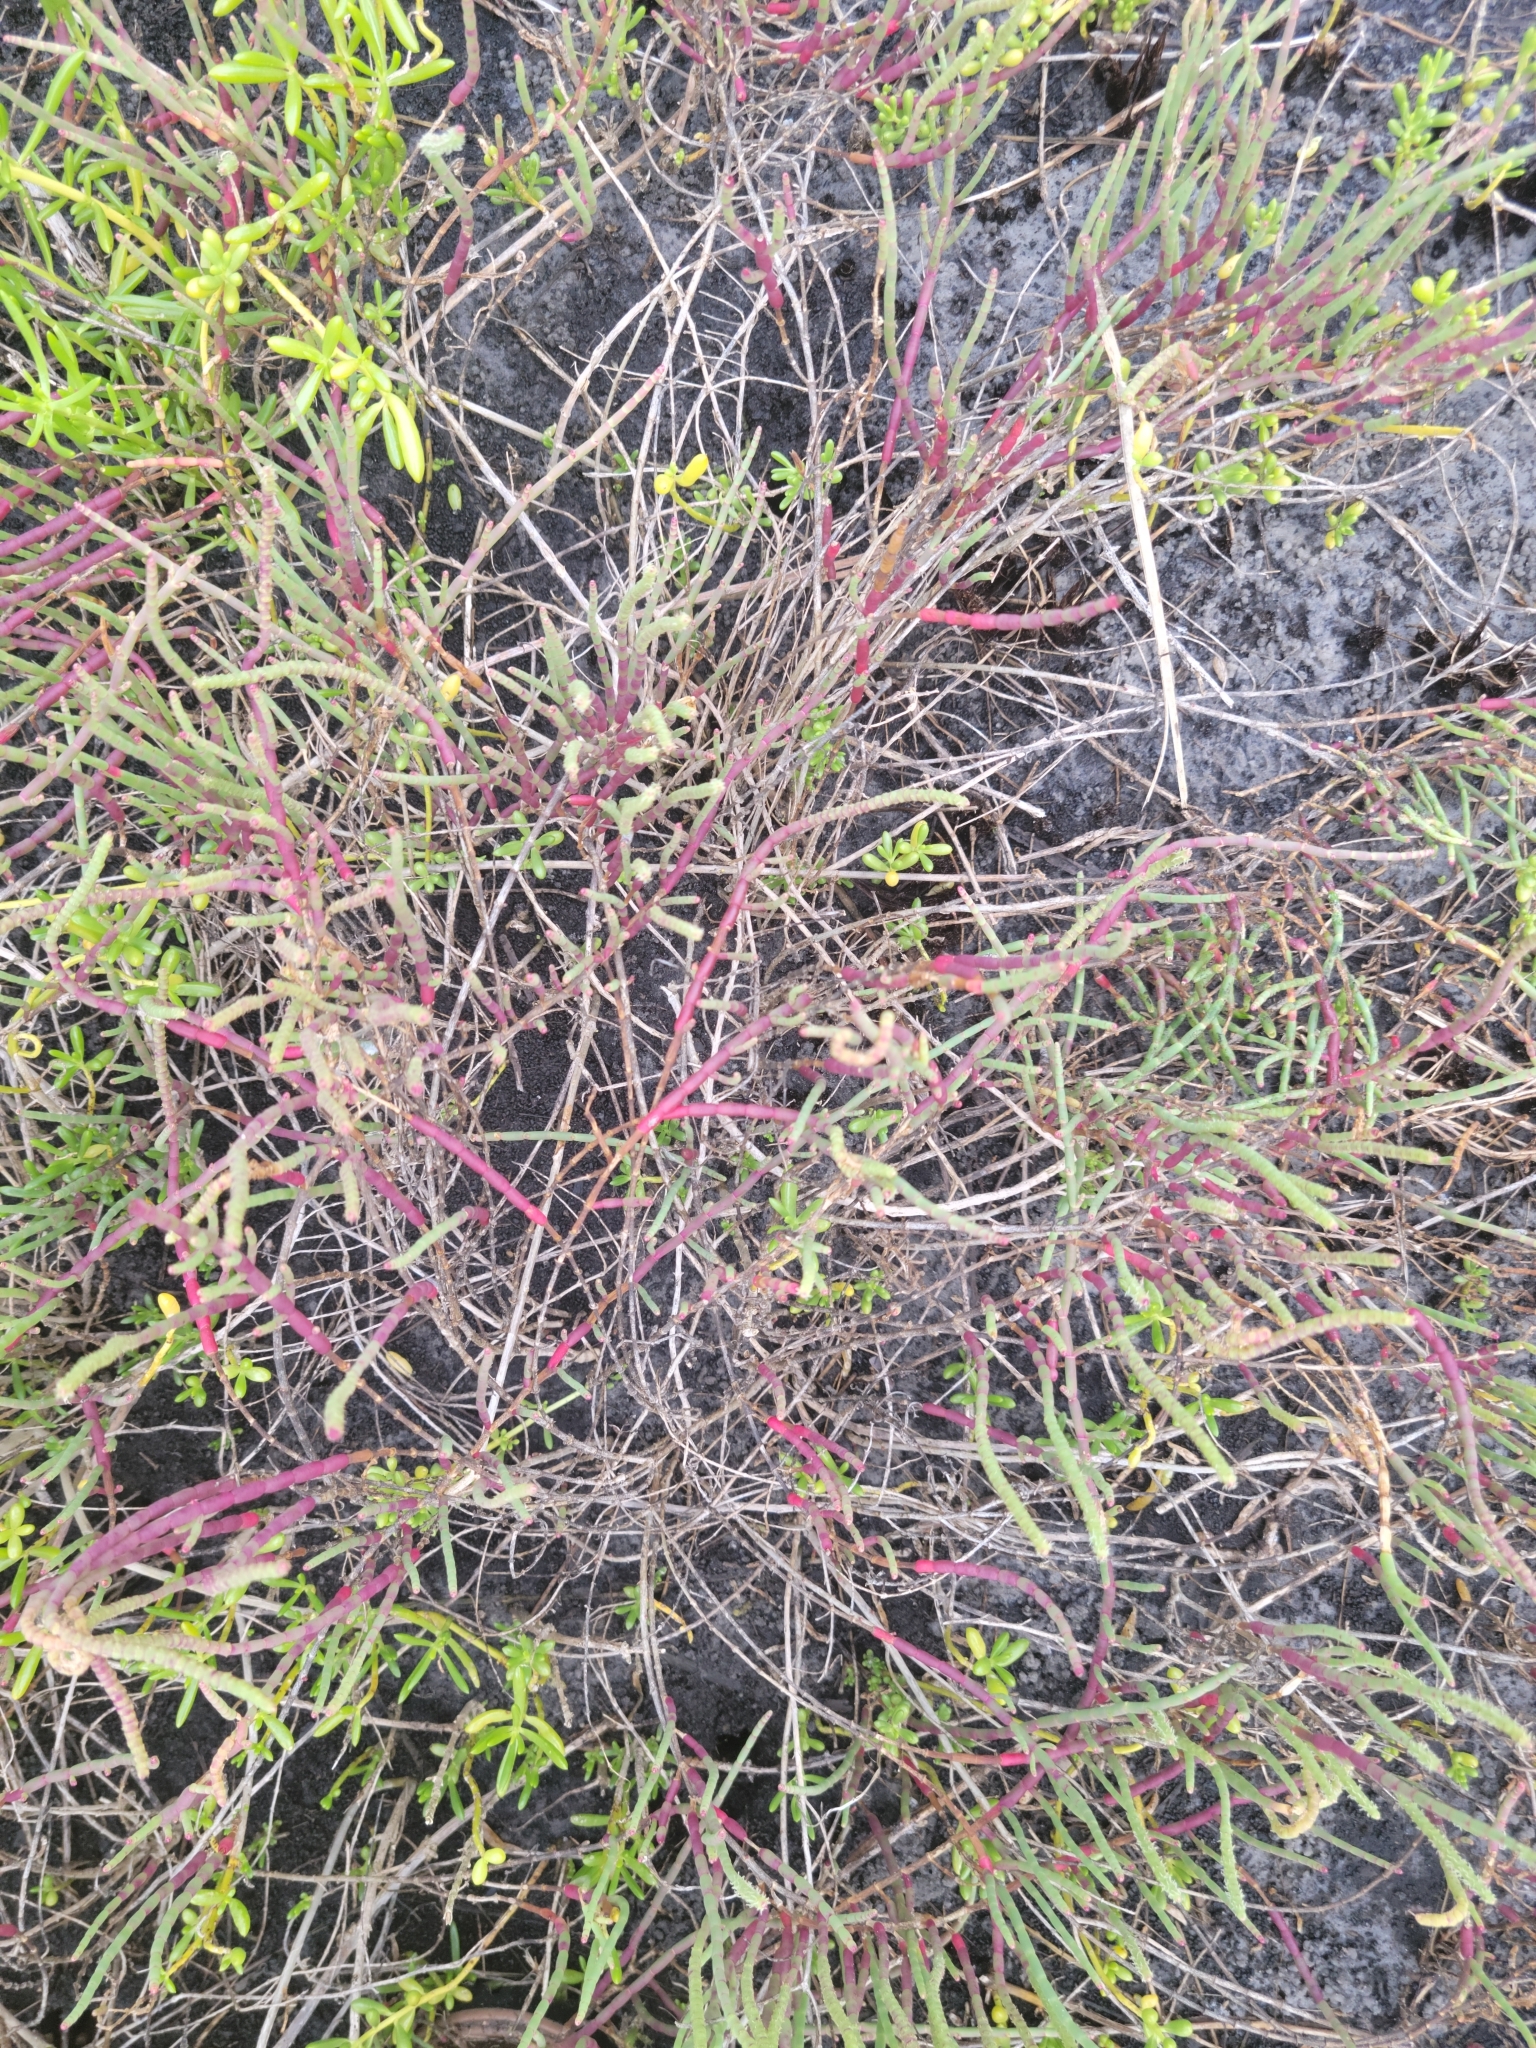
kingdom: Plantae
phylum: Tracheophyta
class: Magnoliopsida
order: Caryophyllales
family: Amaranthaceae
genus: Salicornia
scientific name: Salicornia ambigua
